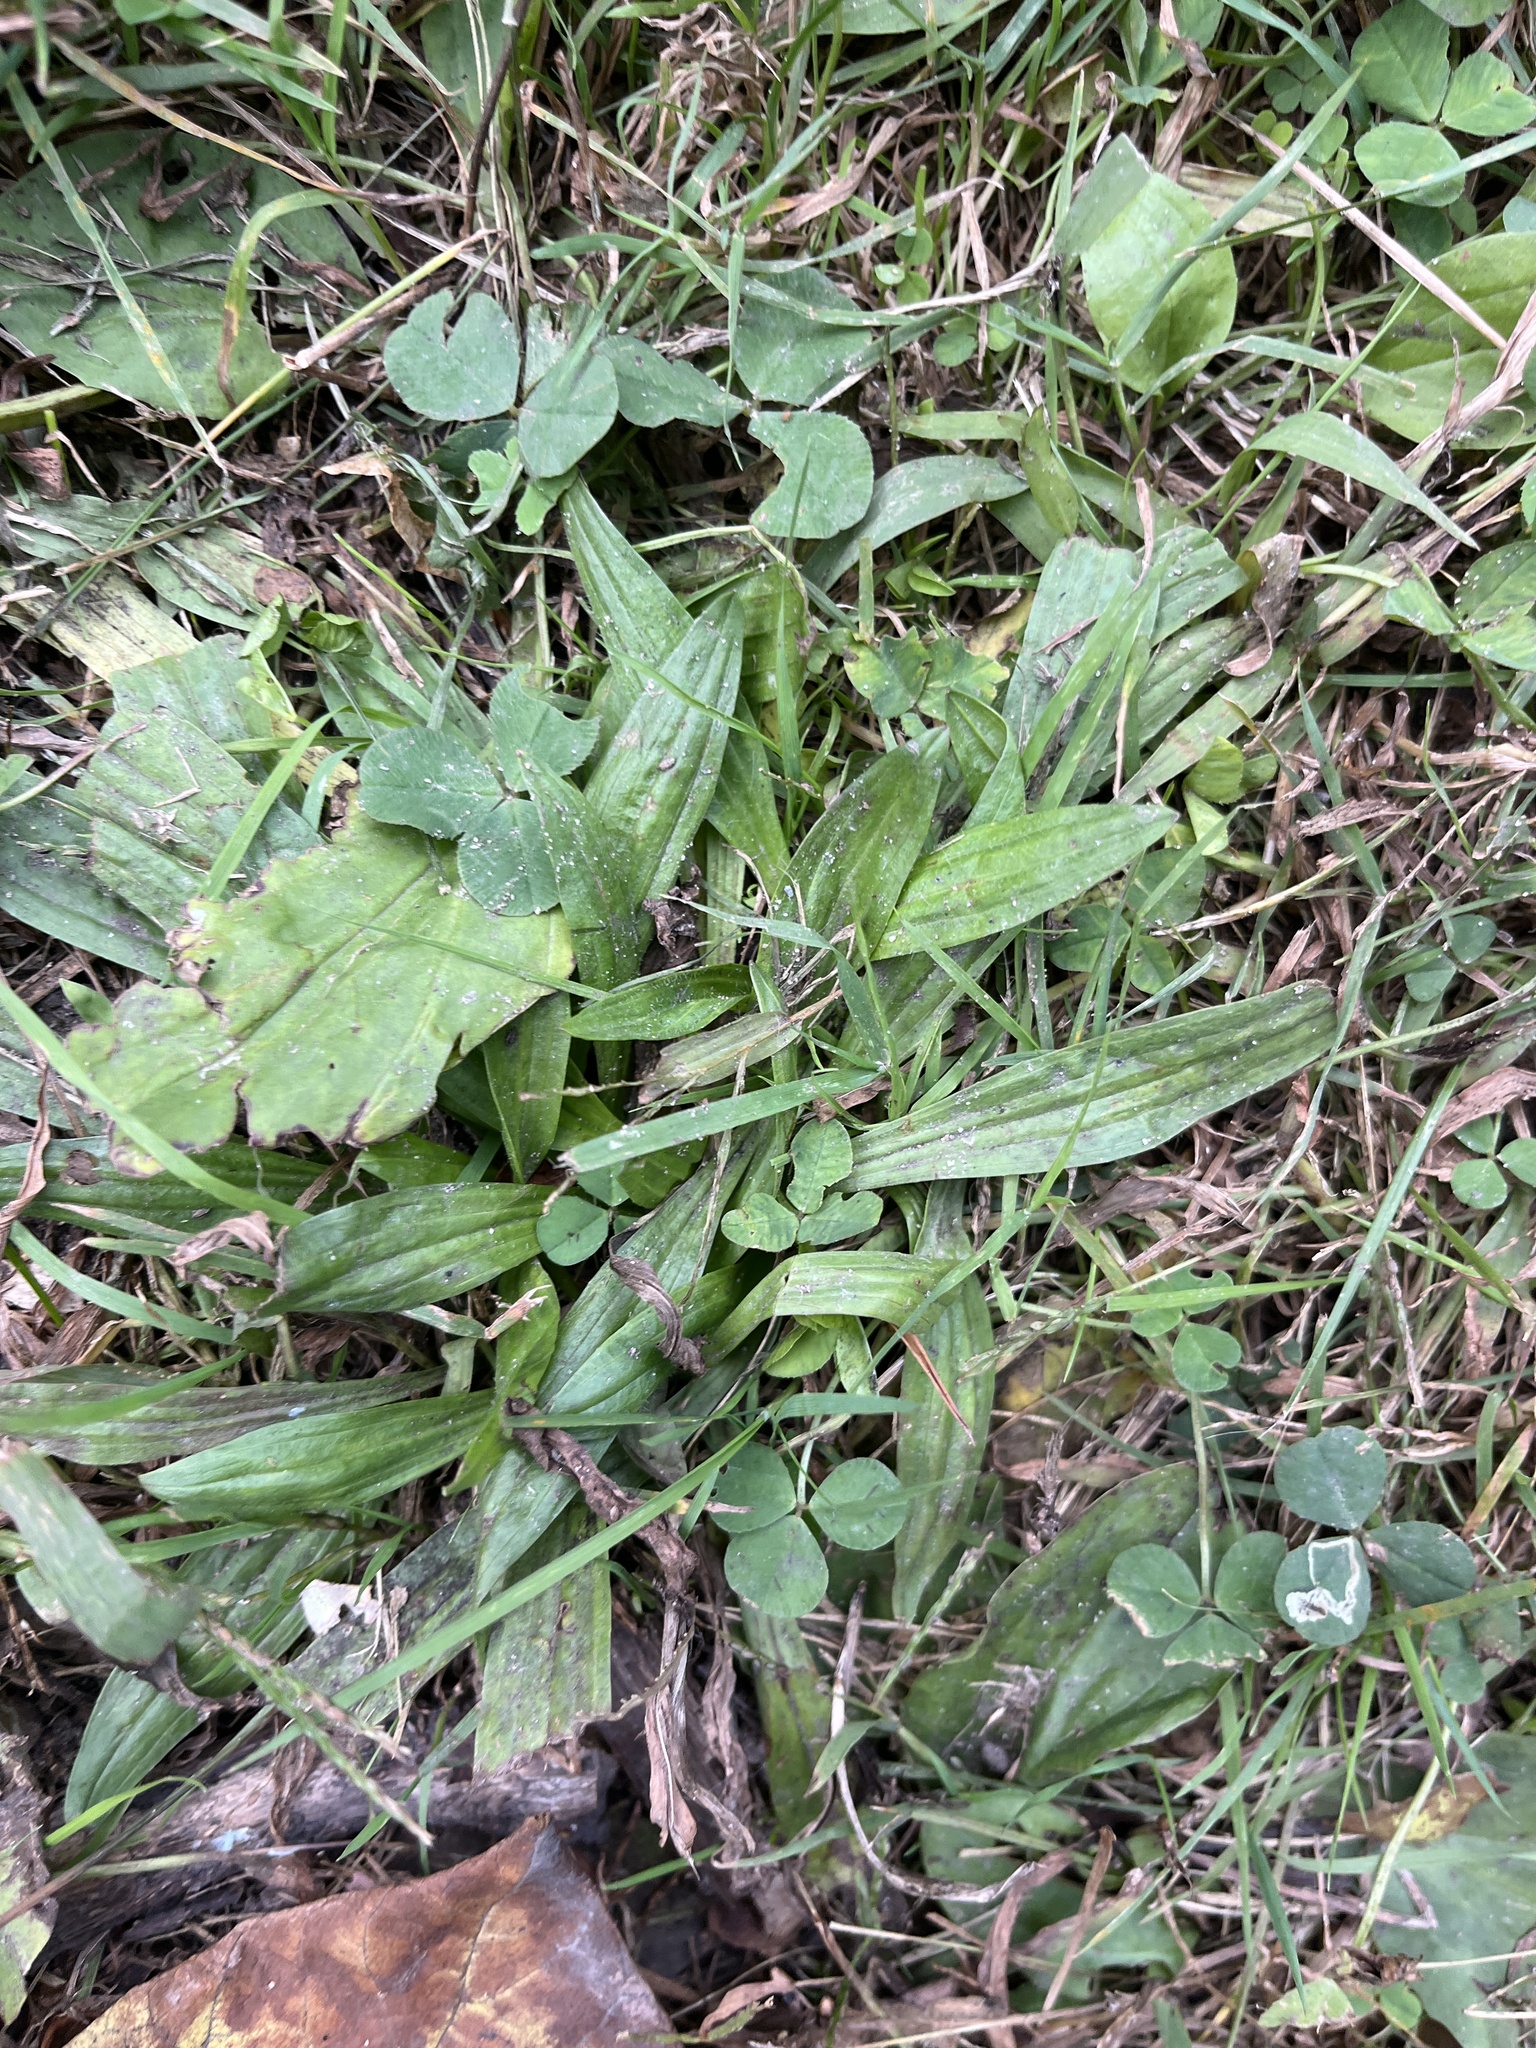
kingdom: Plantae
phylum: Tracheophyta
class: Magnoliopsida
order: Lamiales
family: Plantaginaceae
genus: Plantago
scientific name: Plantago lanceolata
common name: Ribwort plantain
